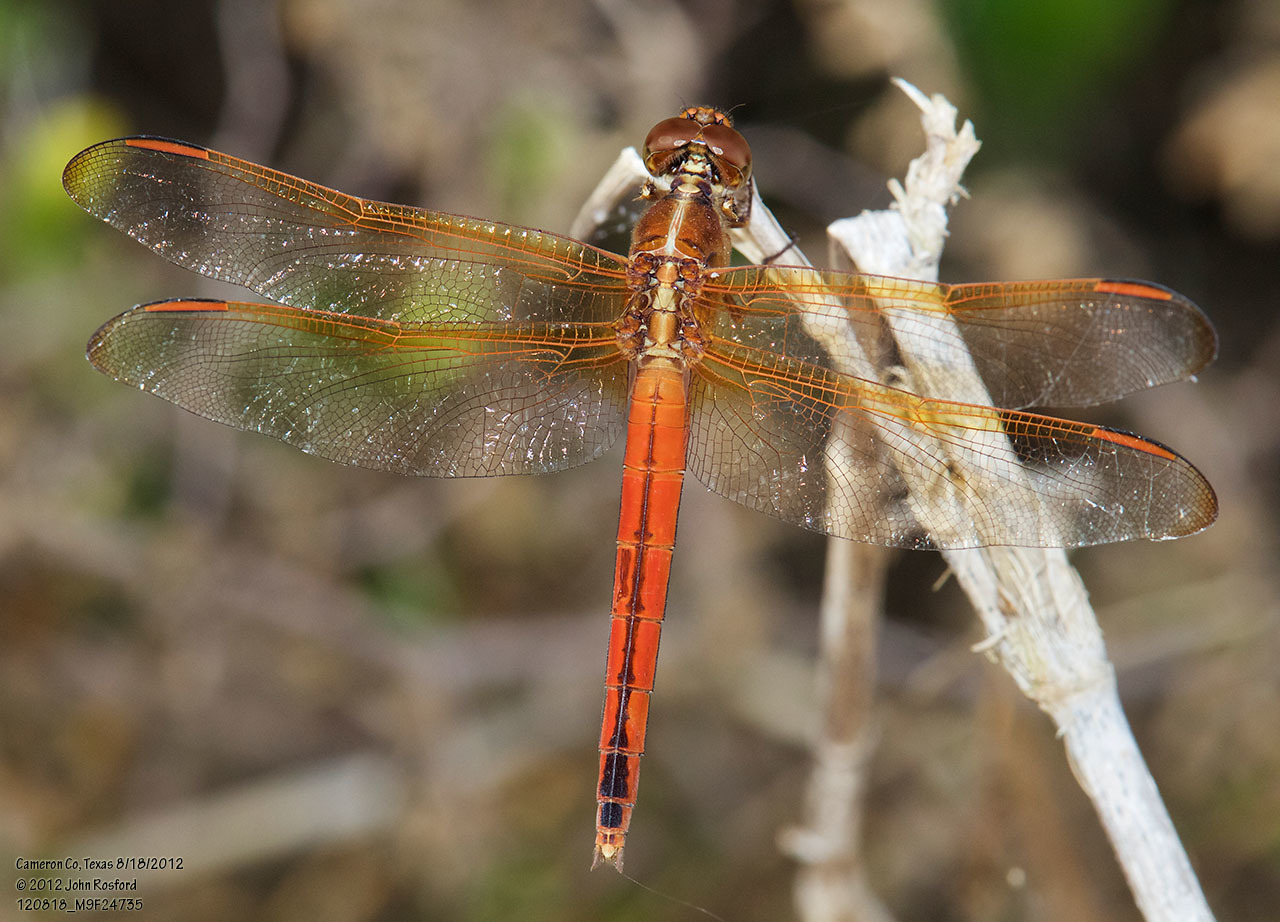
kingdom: Animalia
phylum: Arthropoda
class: Insecta
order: Odonata
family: Libellulidae
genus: Libellula
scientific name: Libellula needhami
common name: Needham's skimmer
